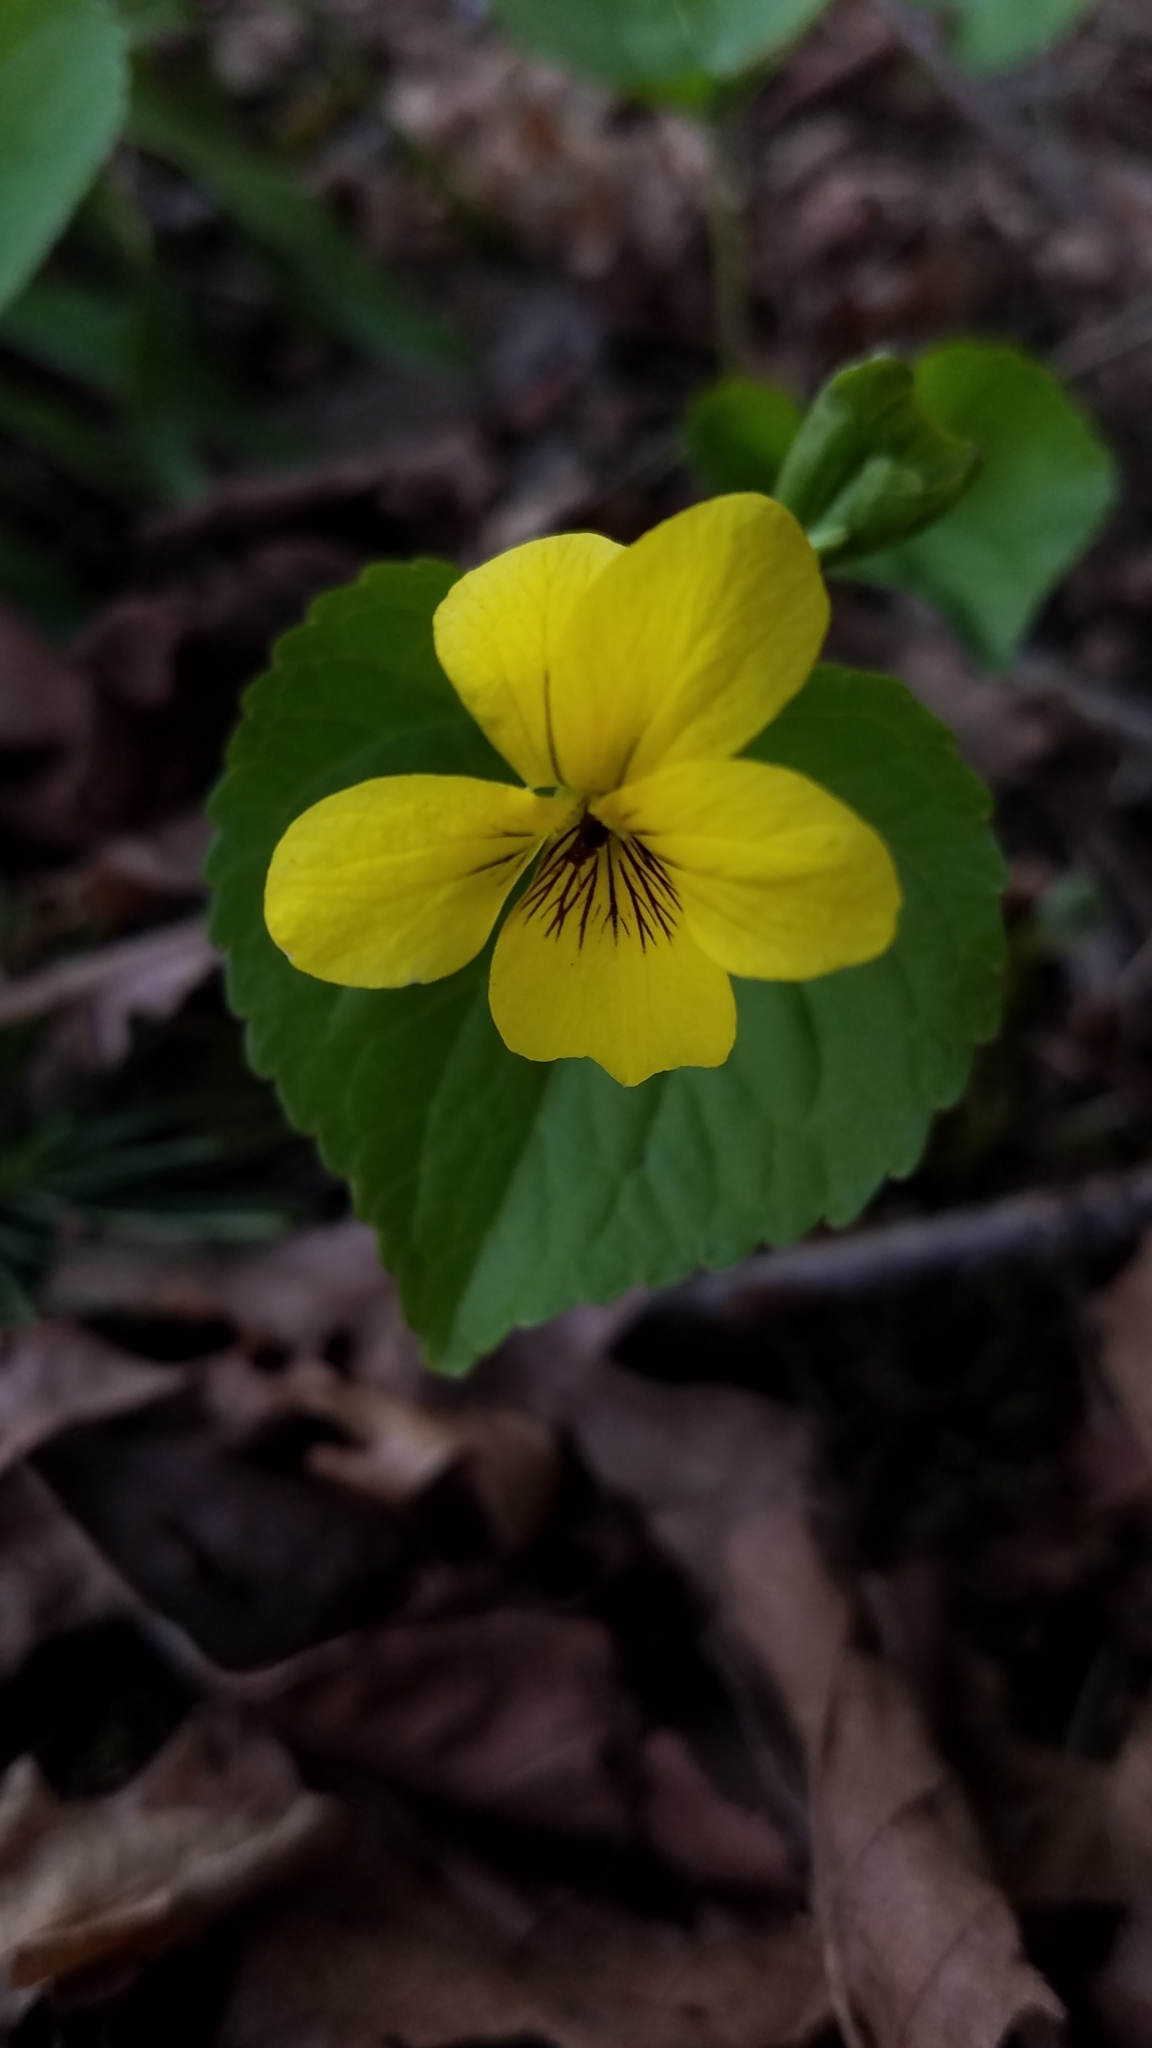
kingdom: Plantae
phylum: Tracheophyta
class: Magnoliopsida
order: Malpighiales
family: Violaceae
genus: Viola
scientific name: Viola glabella
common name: Stream violet
